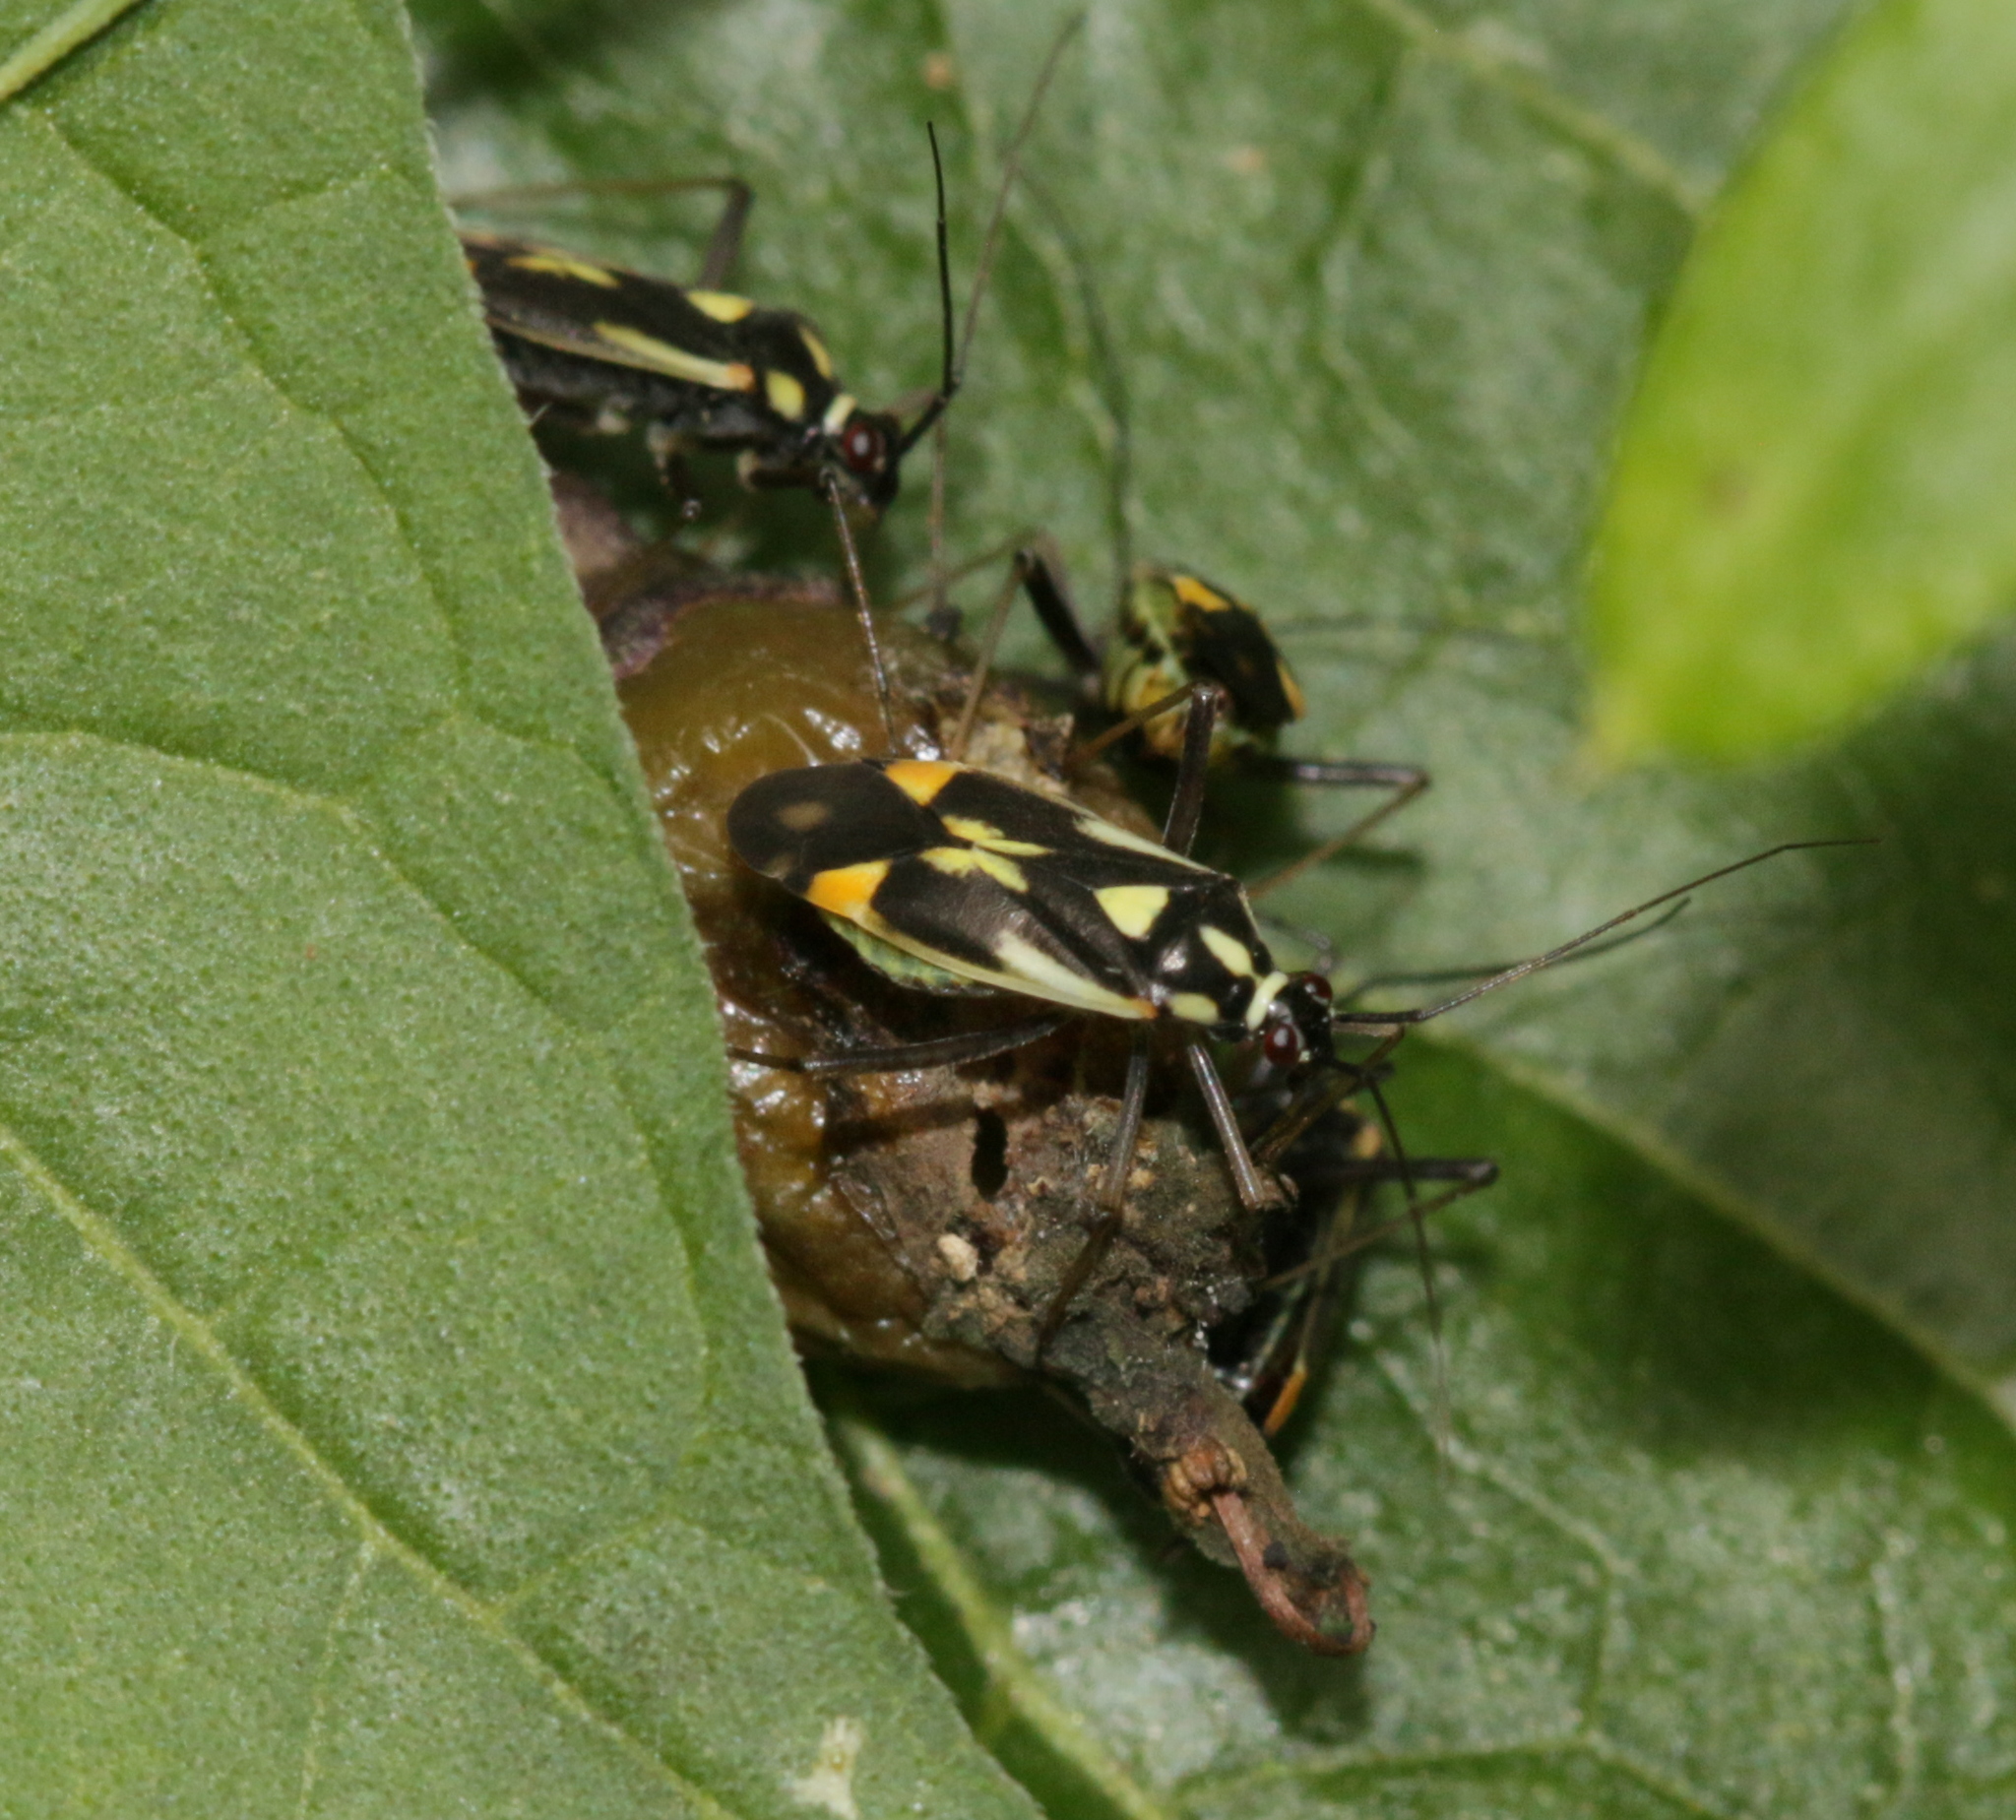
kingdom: Animalia
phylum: Arthropoda
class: Insecta
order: Hemiptera
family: Miridae
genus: Grypocoris
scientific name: Grypocoris stysi
